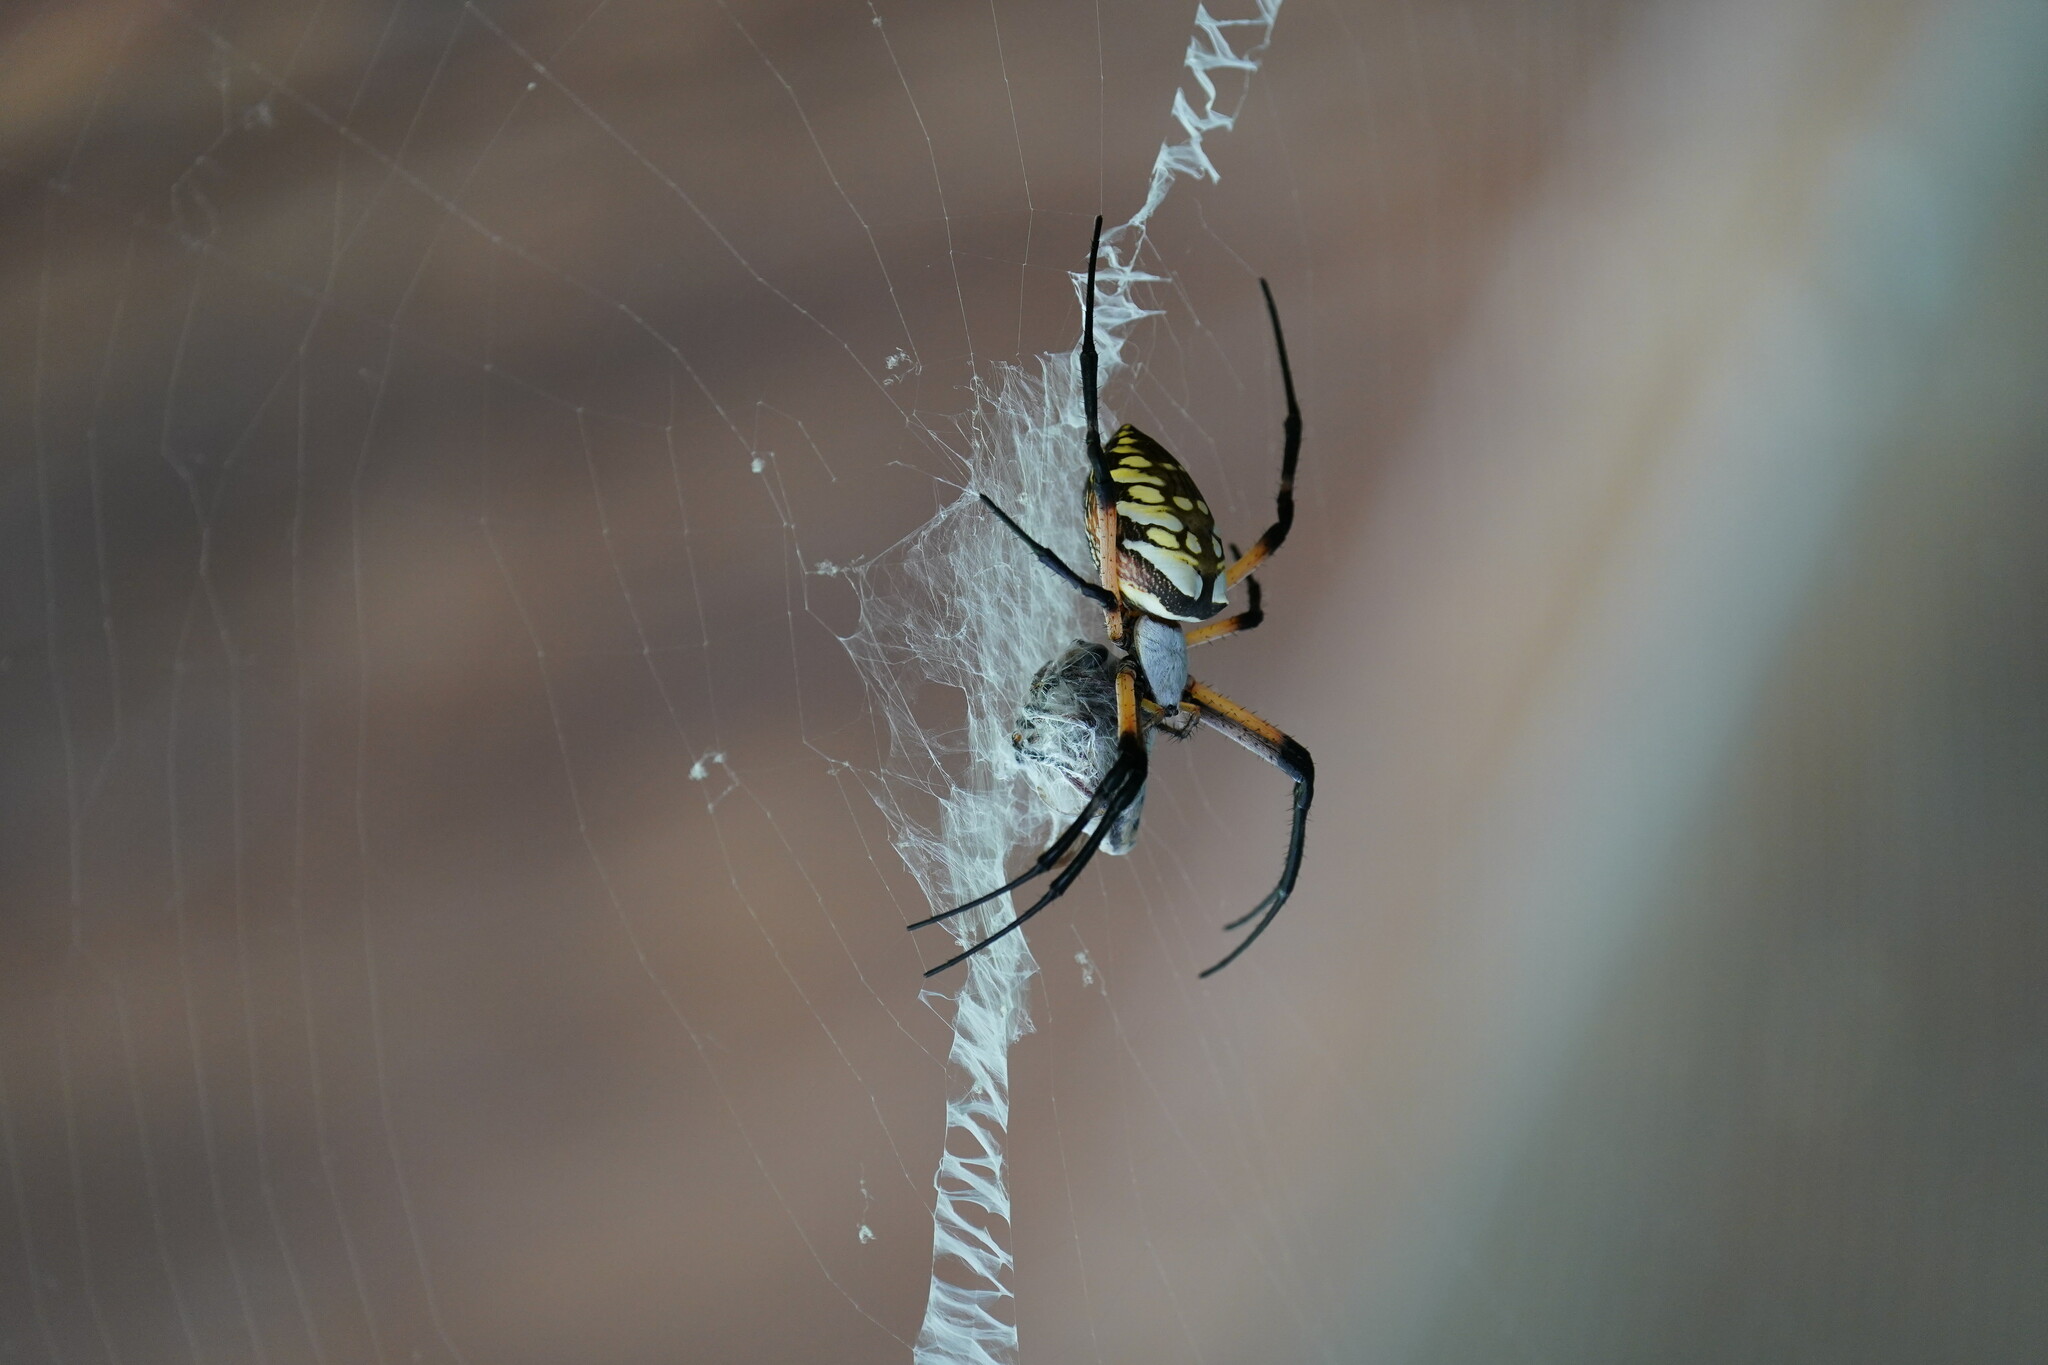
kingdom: Animalia
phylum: Arthropoda
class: Arachnida
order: Araneae
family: Araneidae
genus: Argiope
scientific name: Argiope aurantia
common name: Orb weavers
